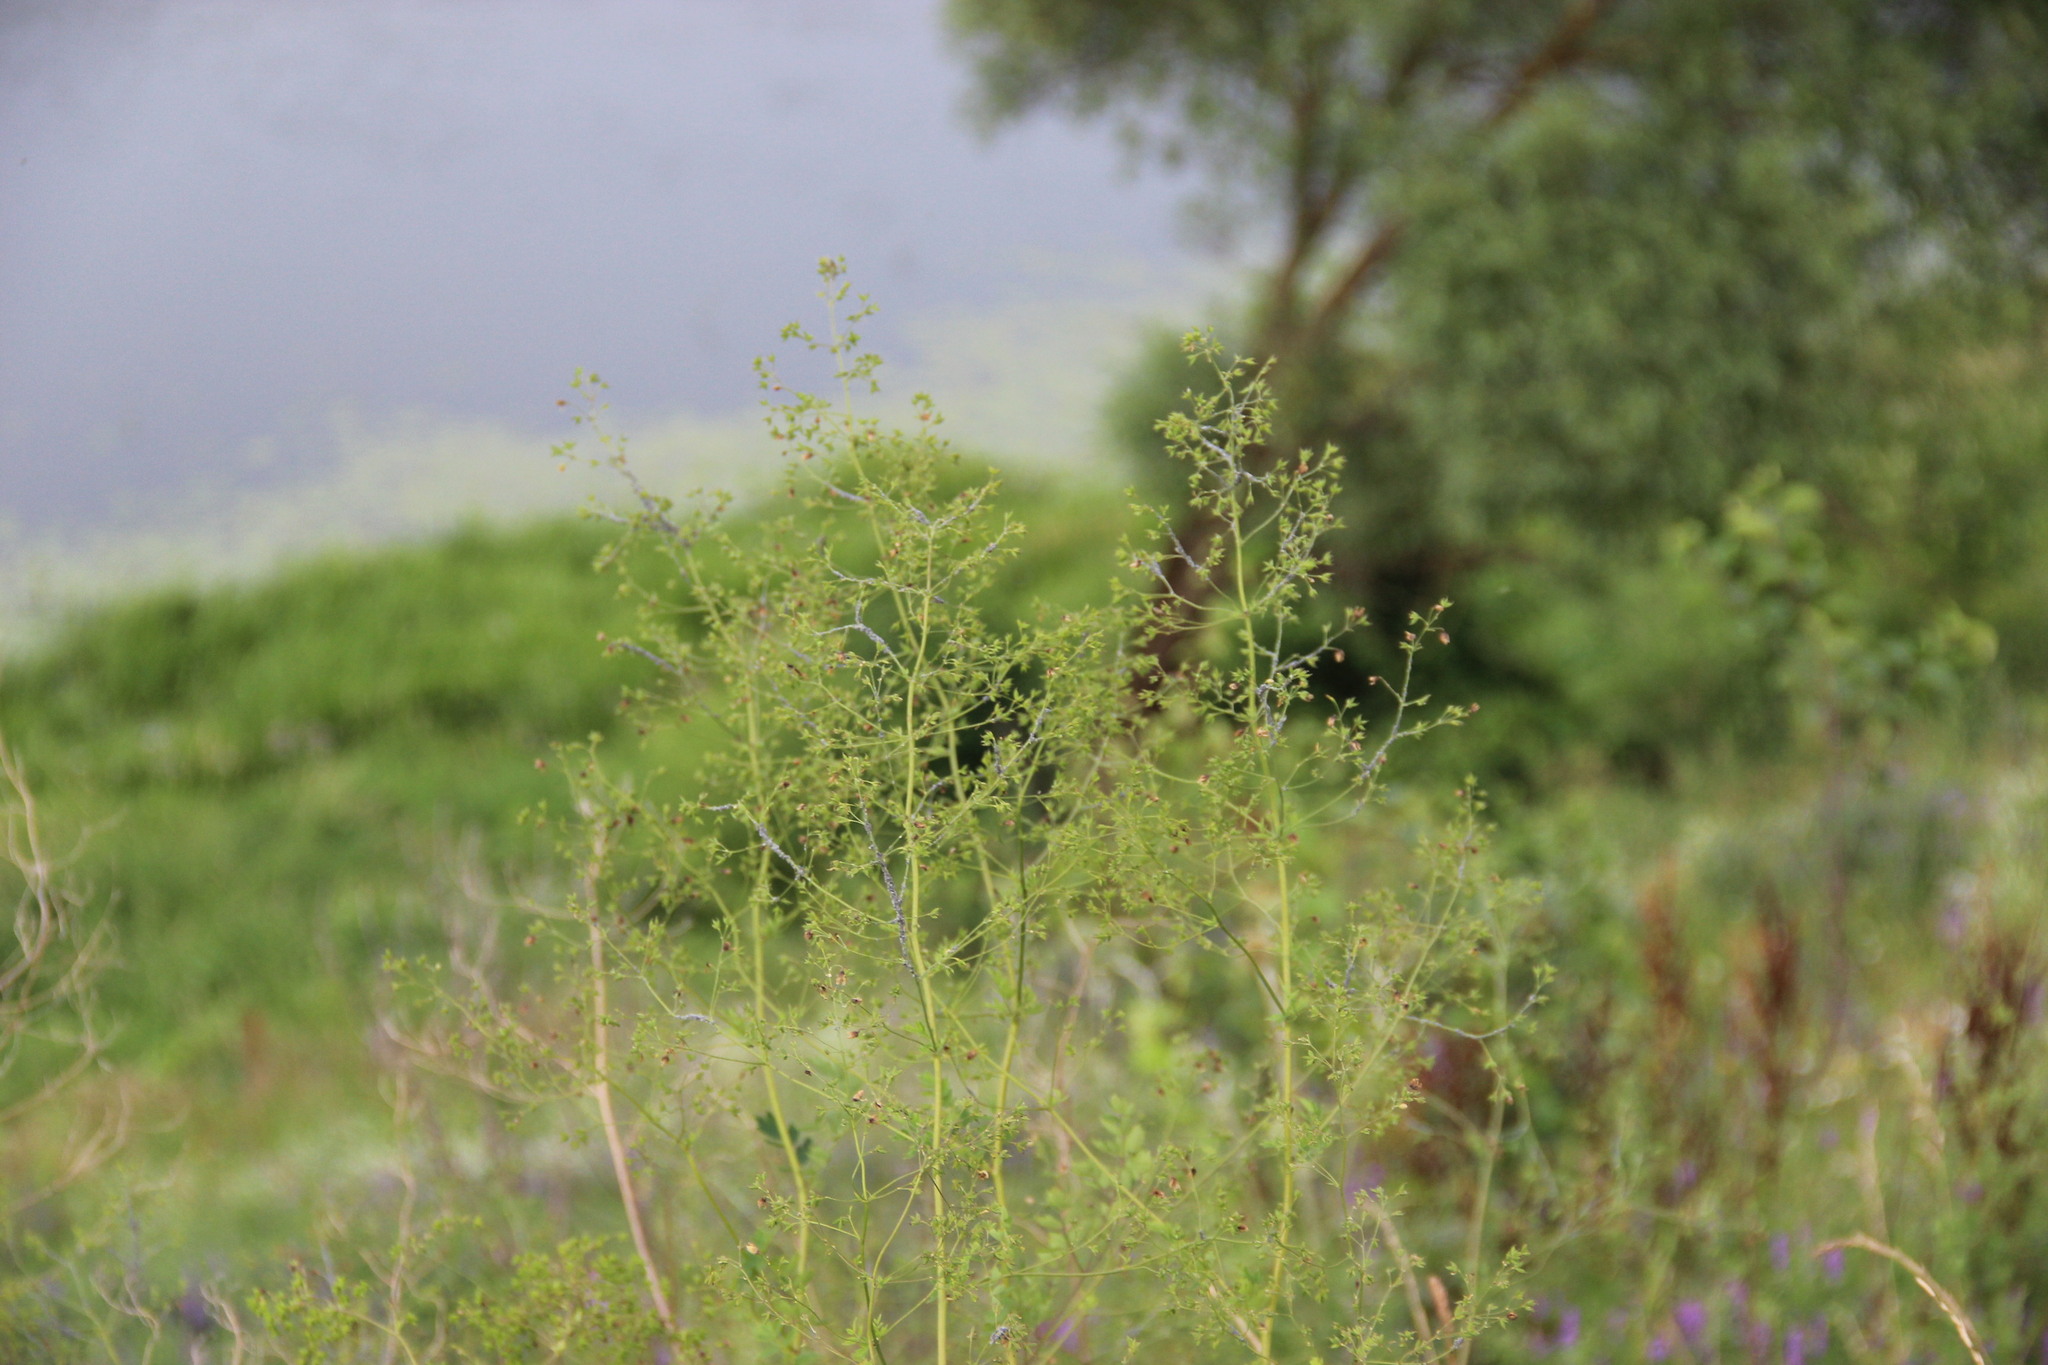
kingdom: Plantae
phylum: Tracheophyta
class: Magnoliopsida
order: Ranunculales
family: Ranunculaceae
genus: Thalictrum
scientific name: Thalictrum minus
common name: Lesser meadow-rue
